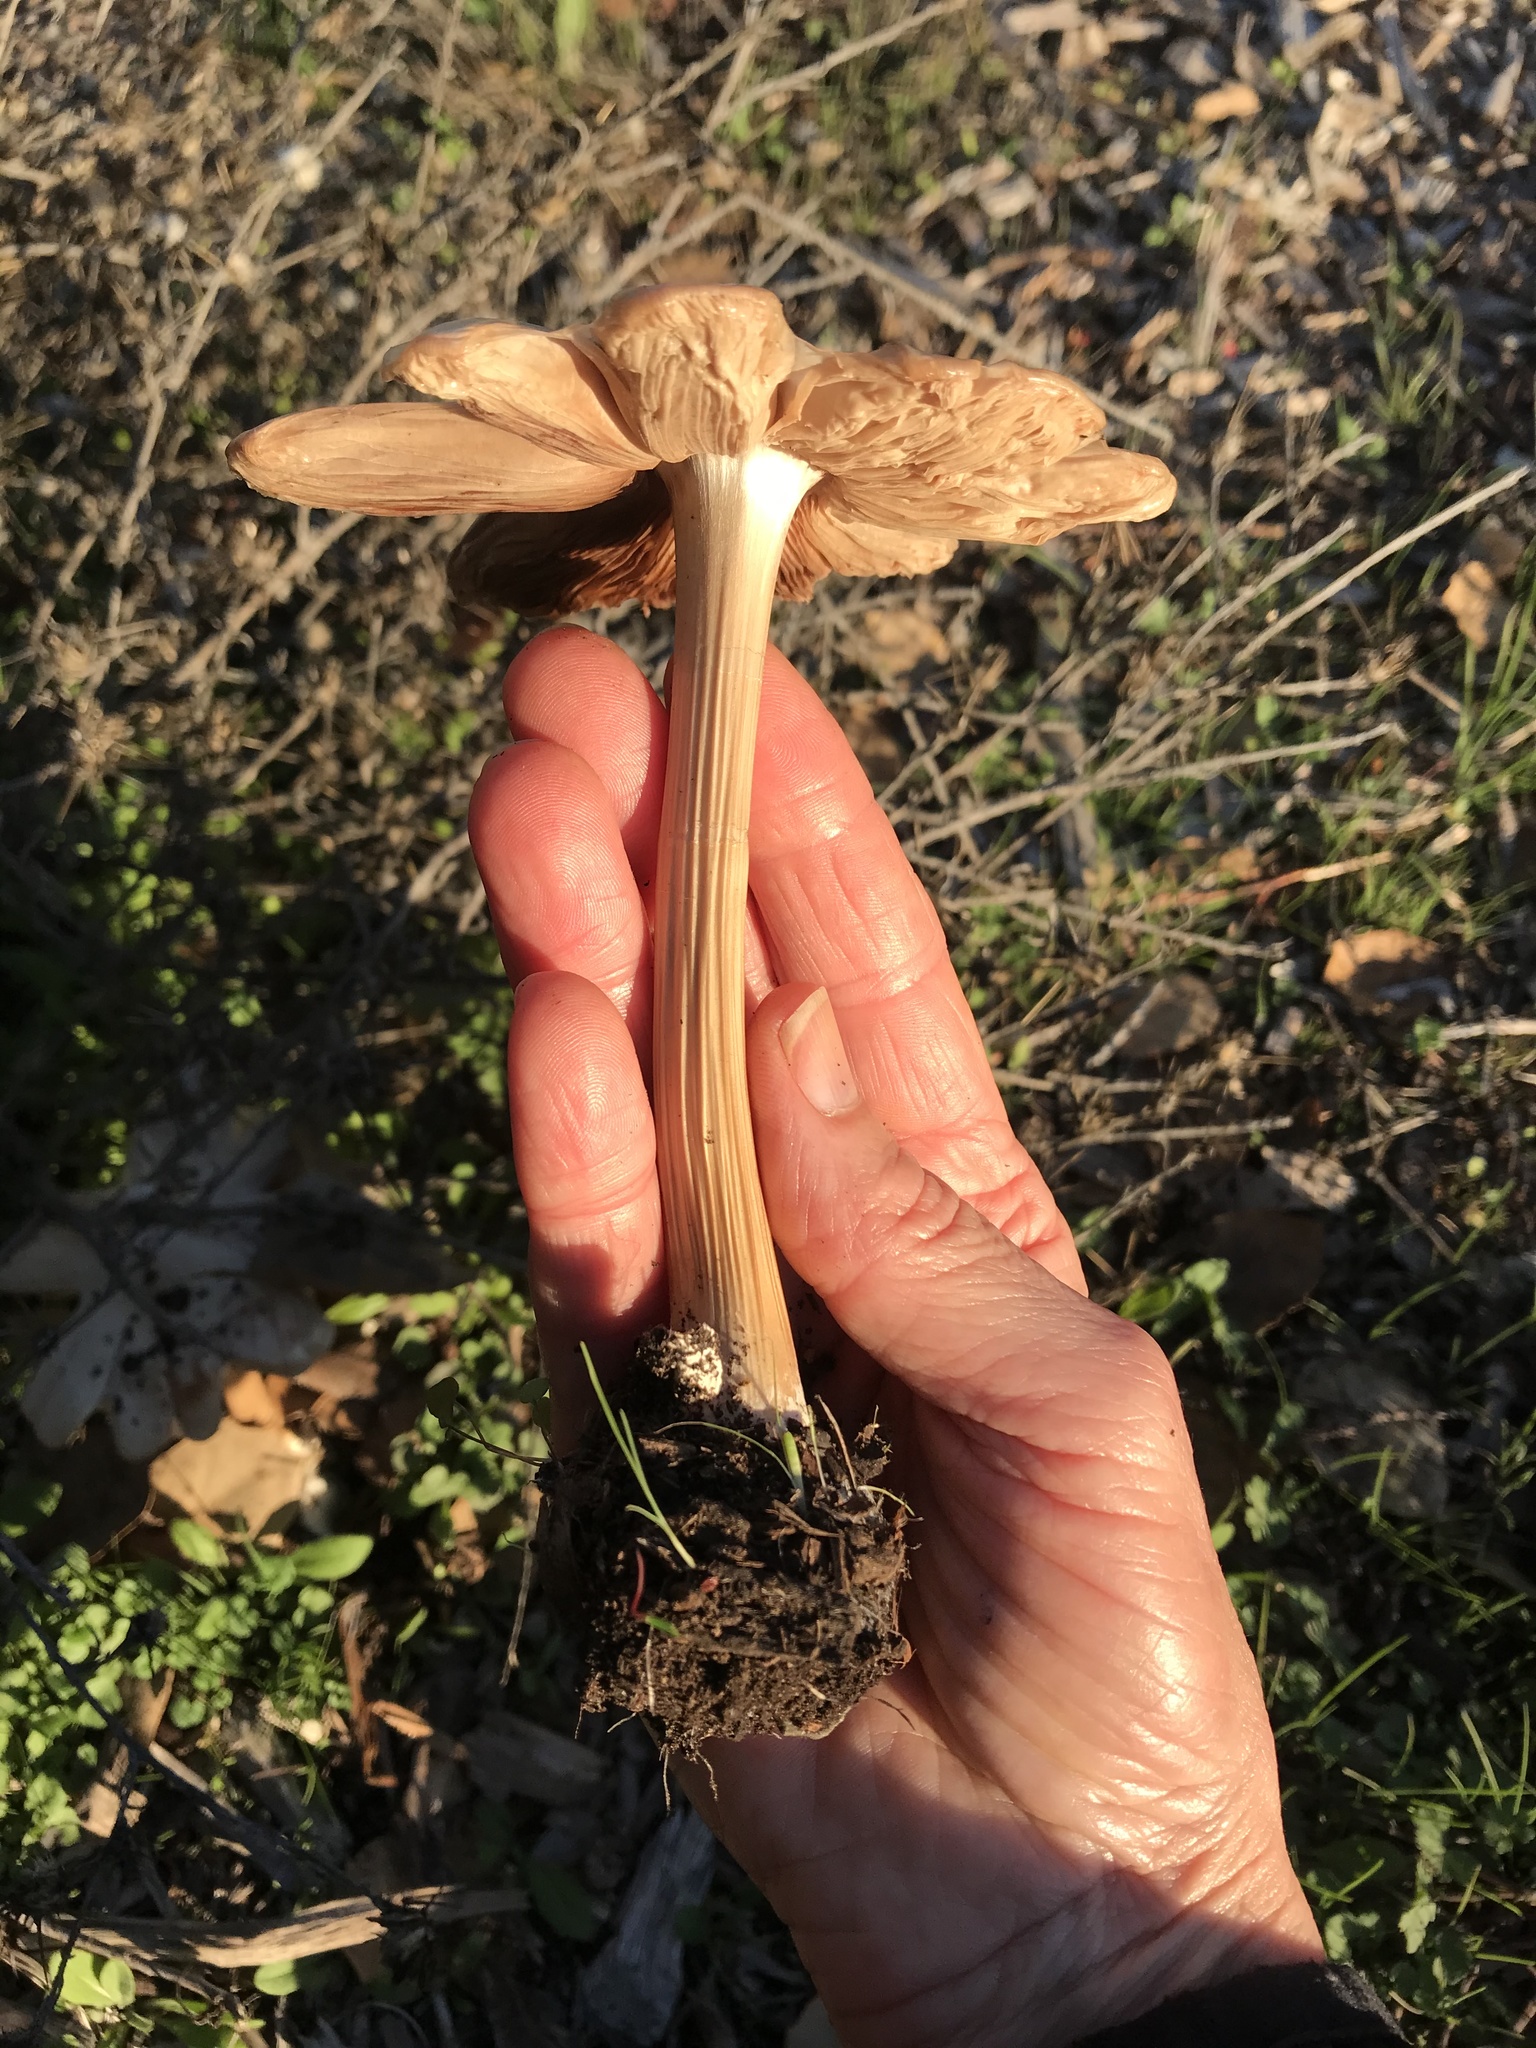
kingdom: Fungi
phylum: Basidiomycota
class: Agaricomycetes
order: Agaricales
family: Pluteaceae
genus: Volvopluteus
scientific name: Volvopluteus gloiocephalus
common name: Stubble rosegill
